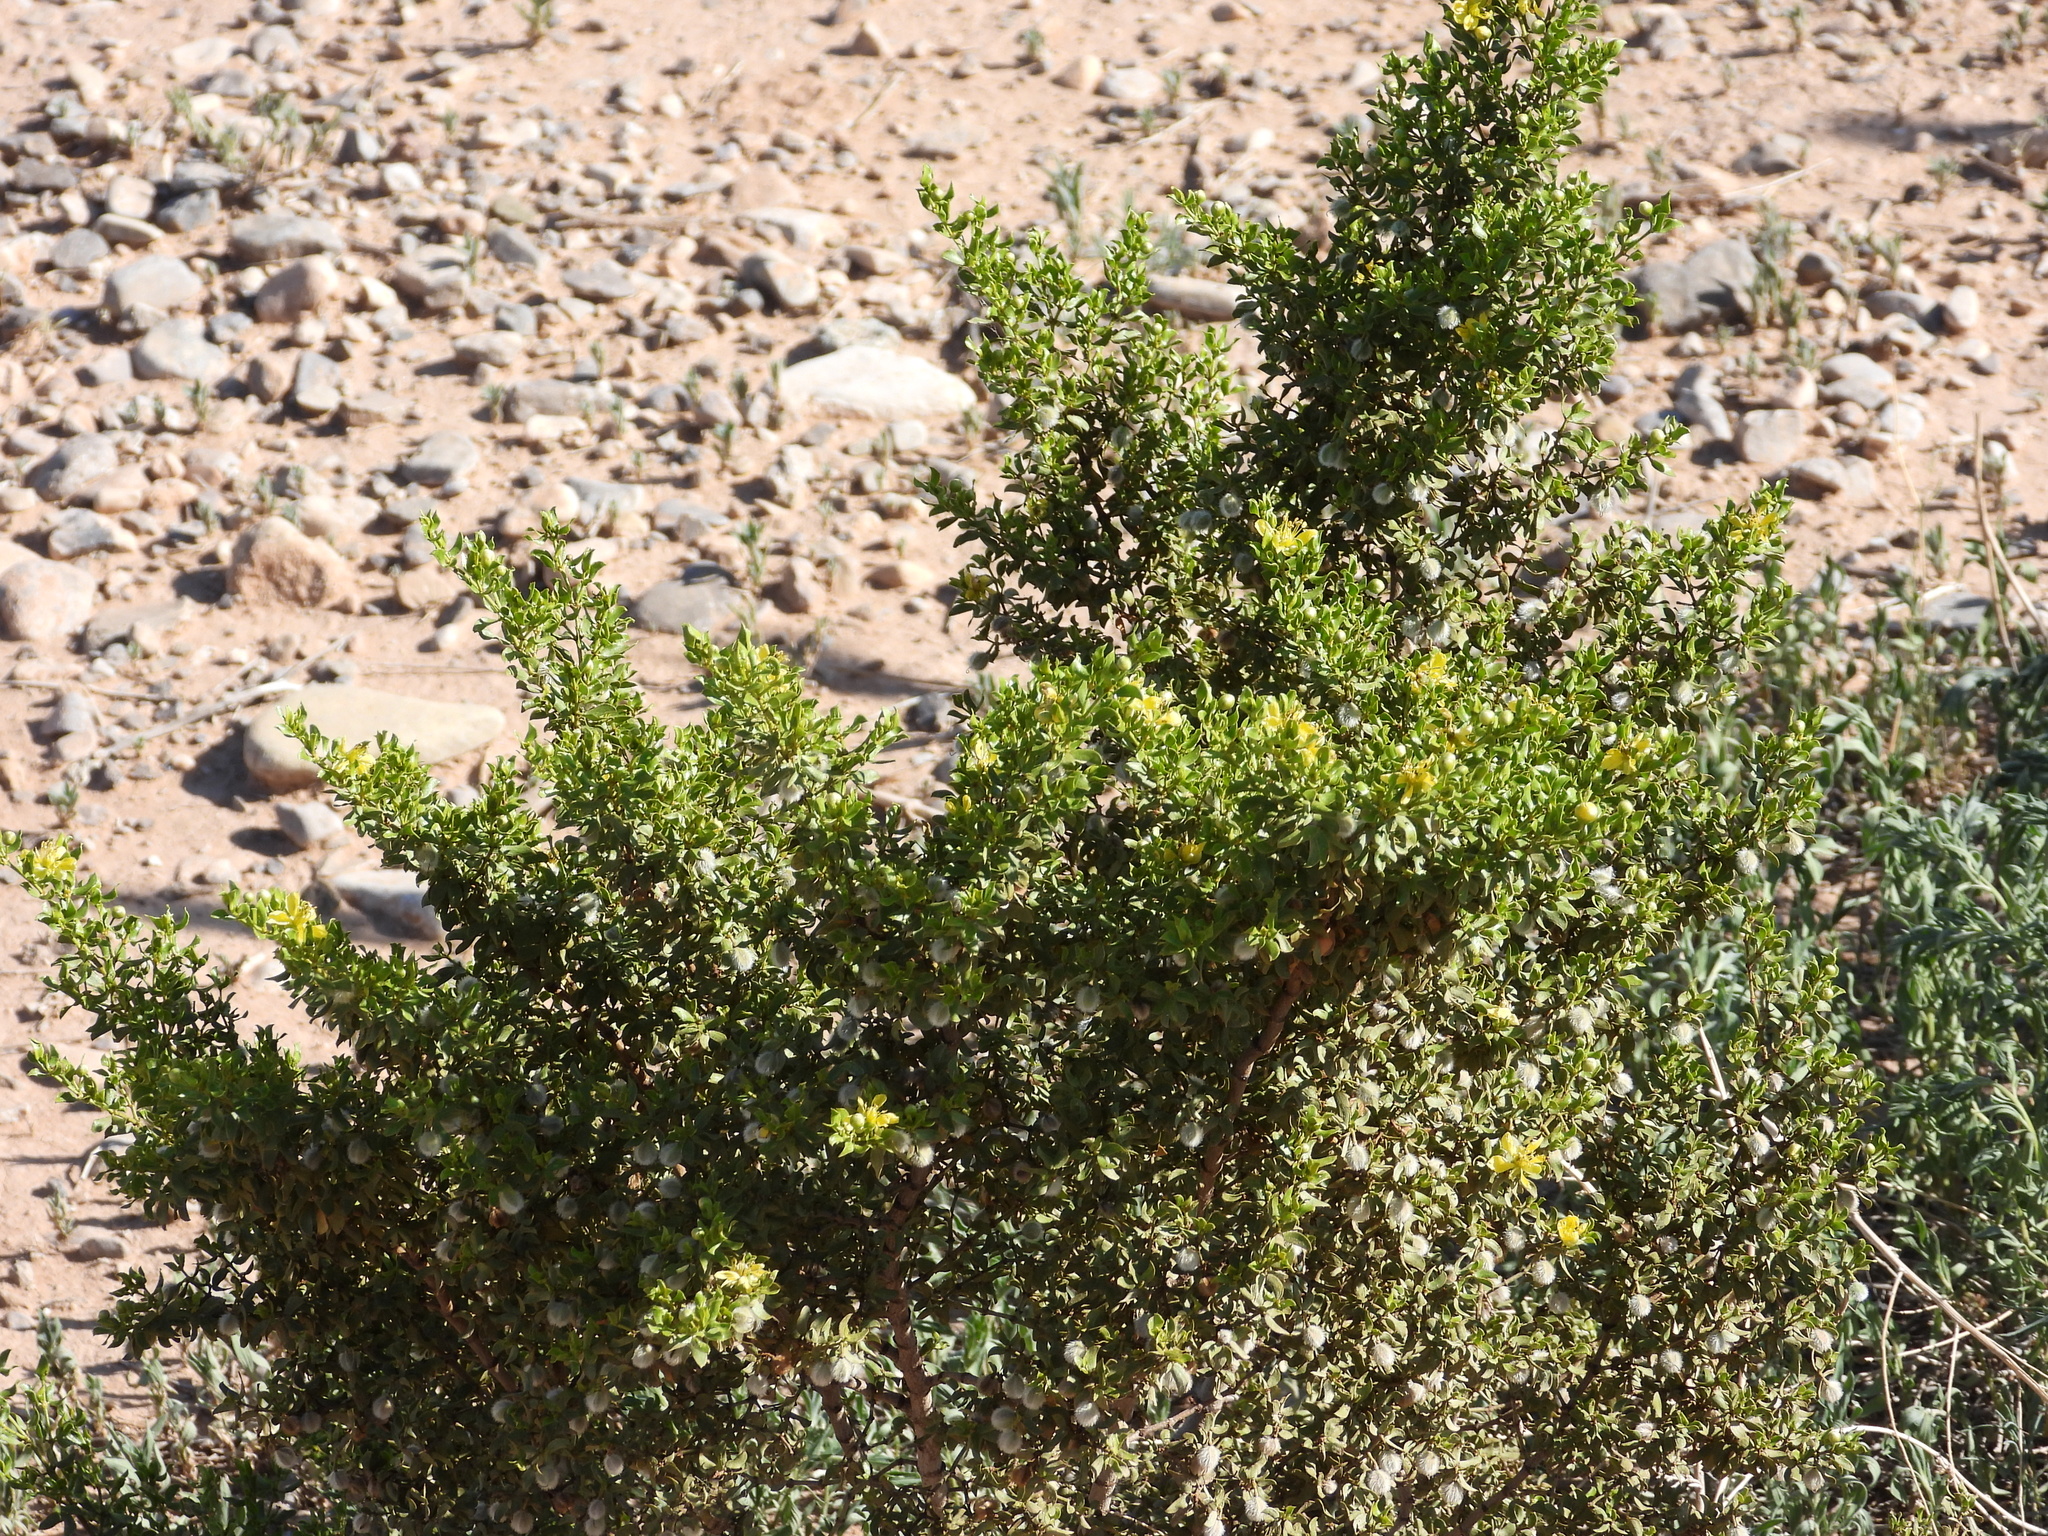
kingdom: Plantae
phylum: Tracheophyta
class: Magnoliopsida
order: Zygophyllales
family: Zygophyllaceae
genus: Larrea
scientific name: Larrea tridentata
